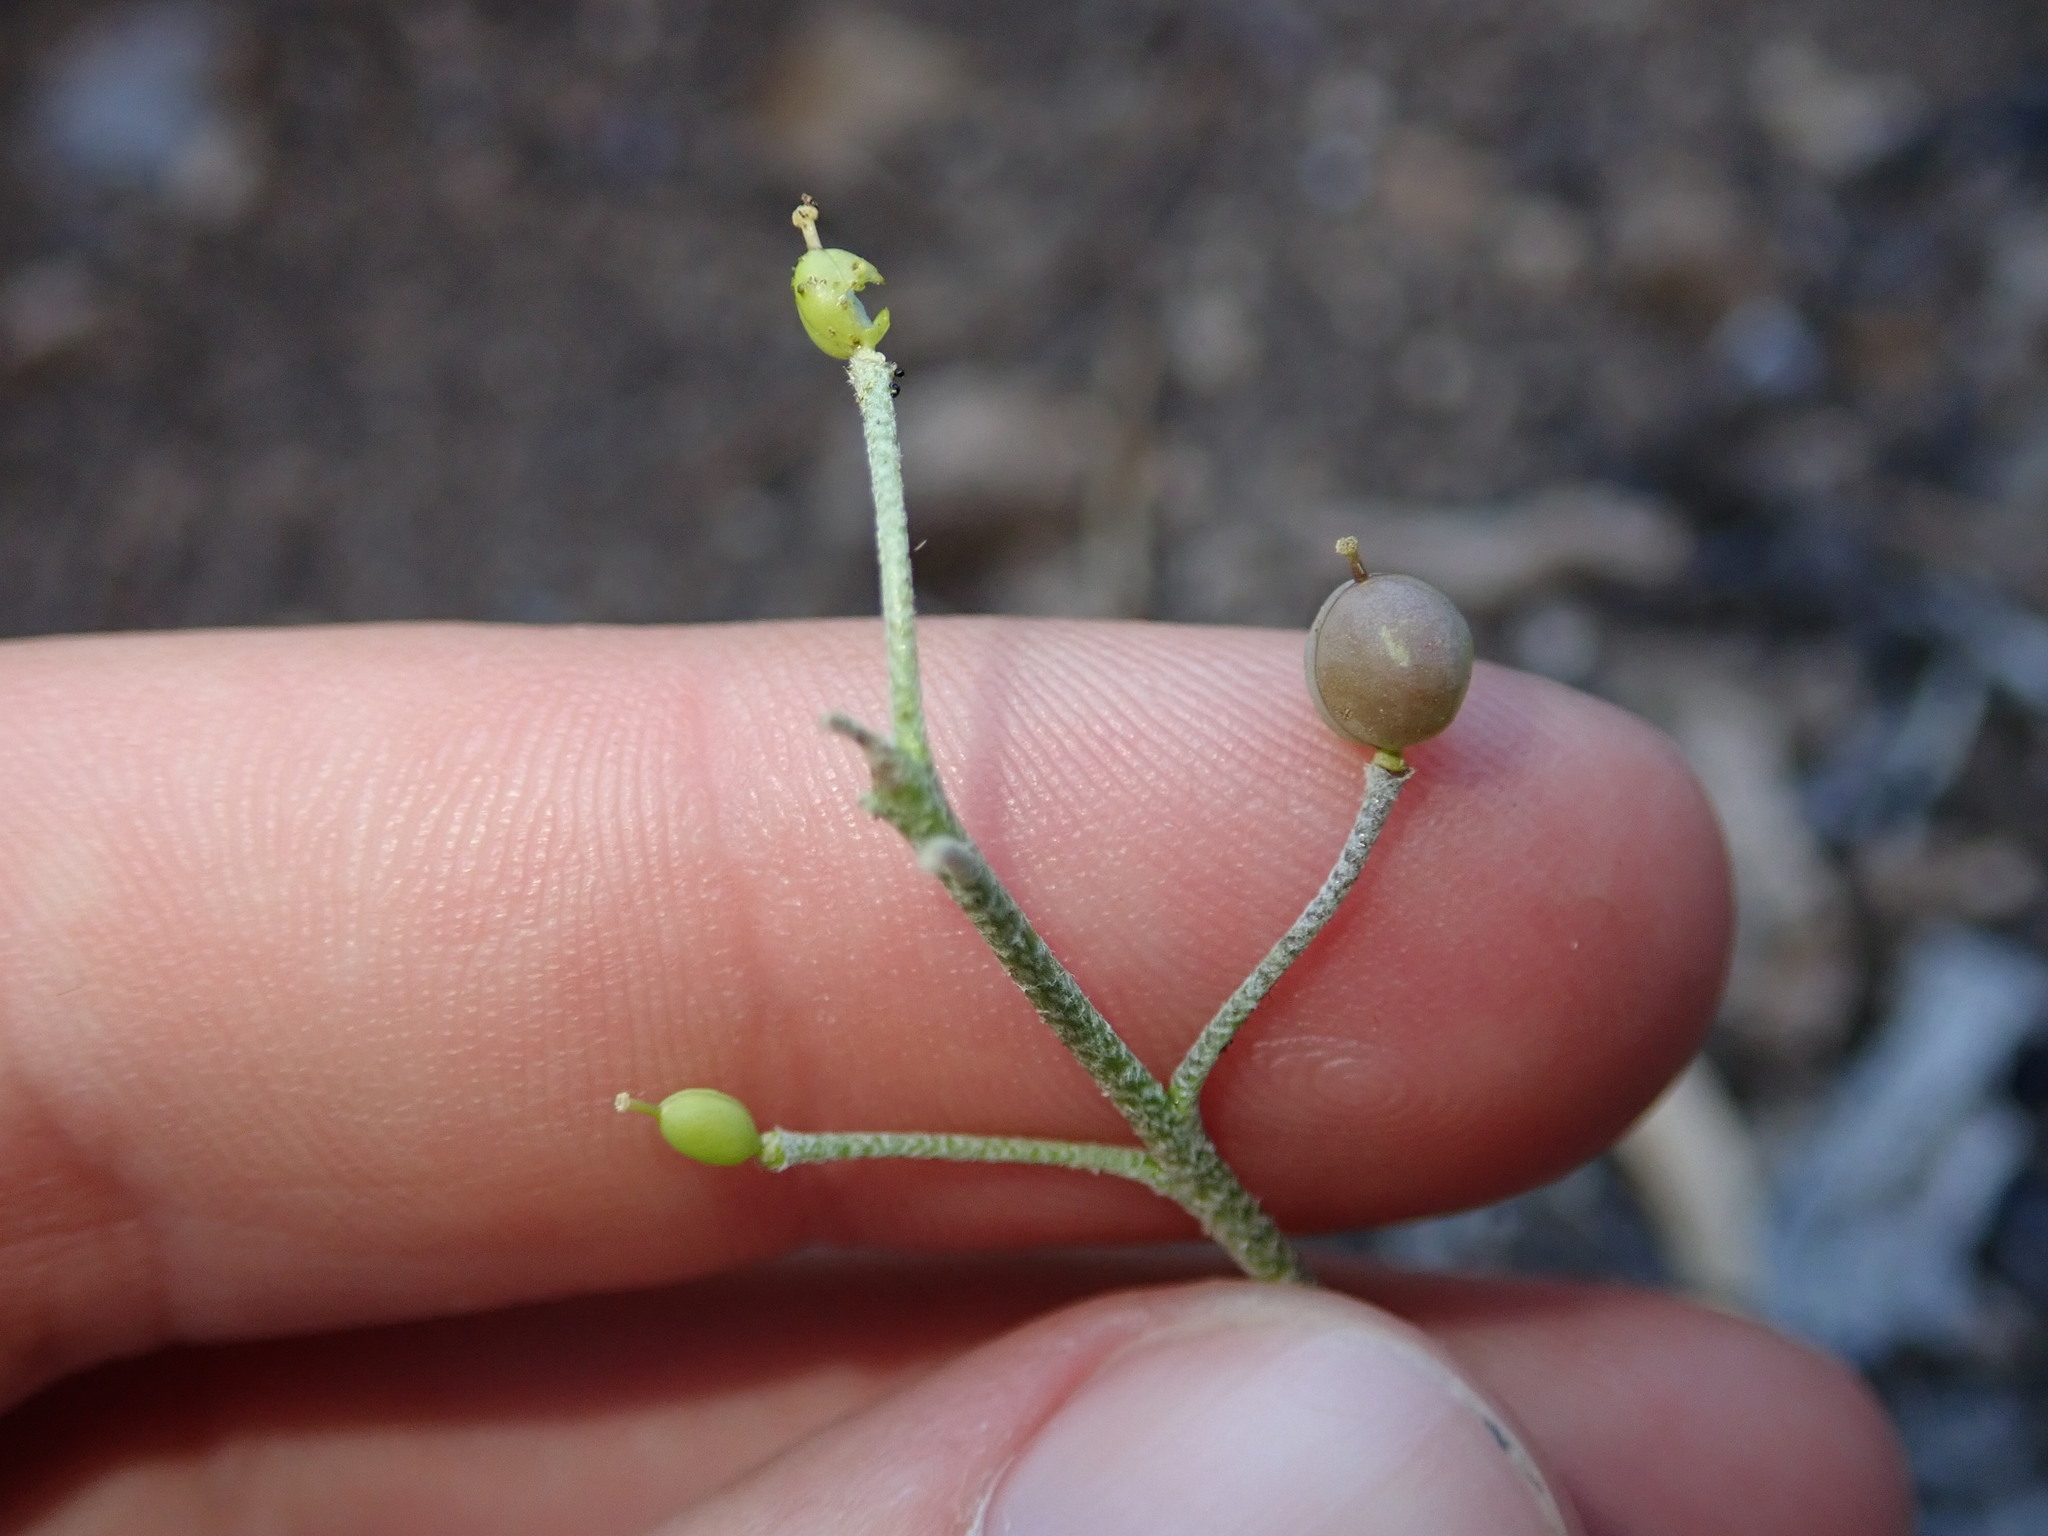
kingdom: Plantae
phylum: Tracheophyta
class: Magnoliopsida
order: Brassicales
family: Brassicaceae
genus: Physaria
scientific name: Physaria purpurea
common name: Rose bladderpod
